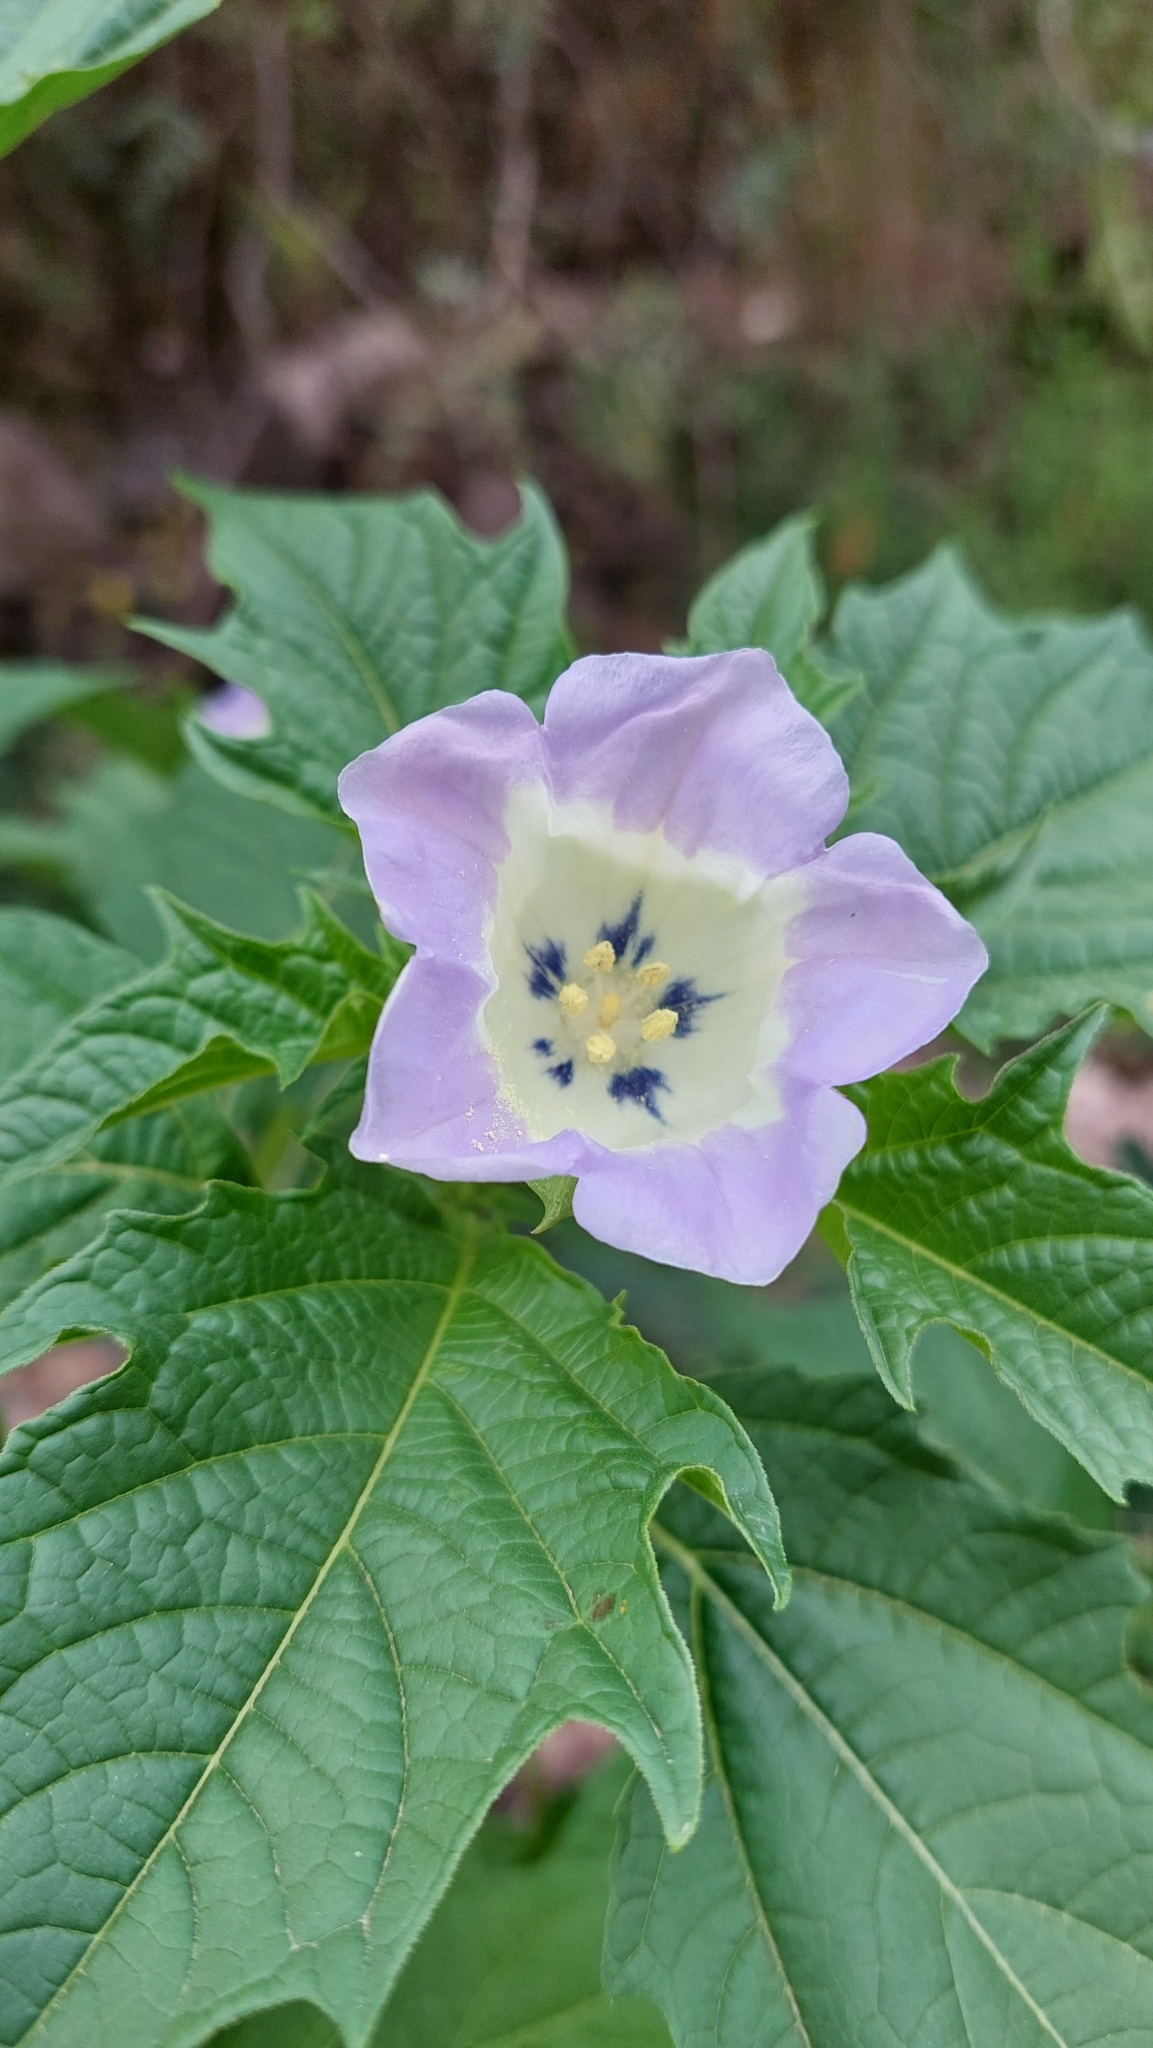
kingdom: Plantae
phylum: Tracheophyta
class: Magnoliopsida
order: Solanales
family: Solanaceae
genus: Nicandra
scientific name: Nicandra physalodes
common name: Apple-of-peru
